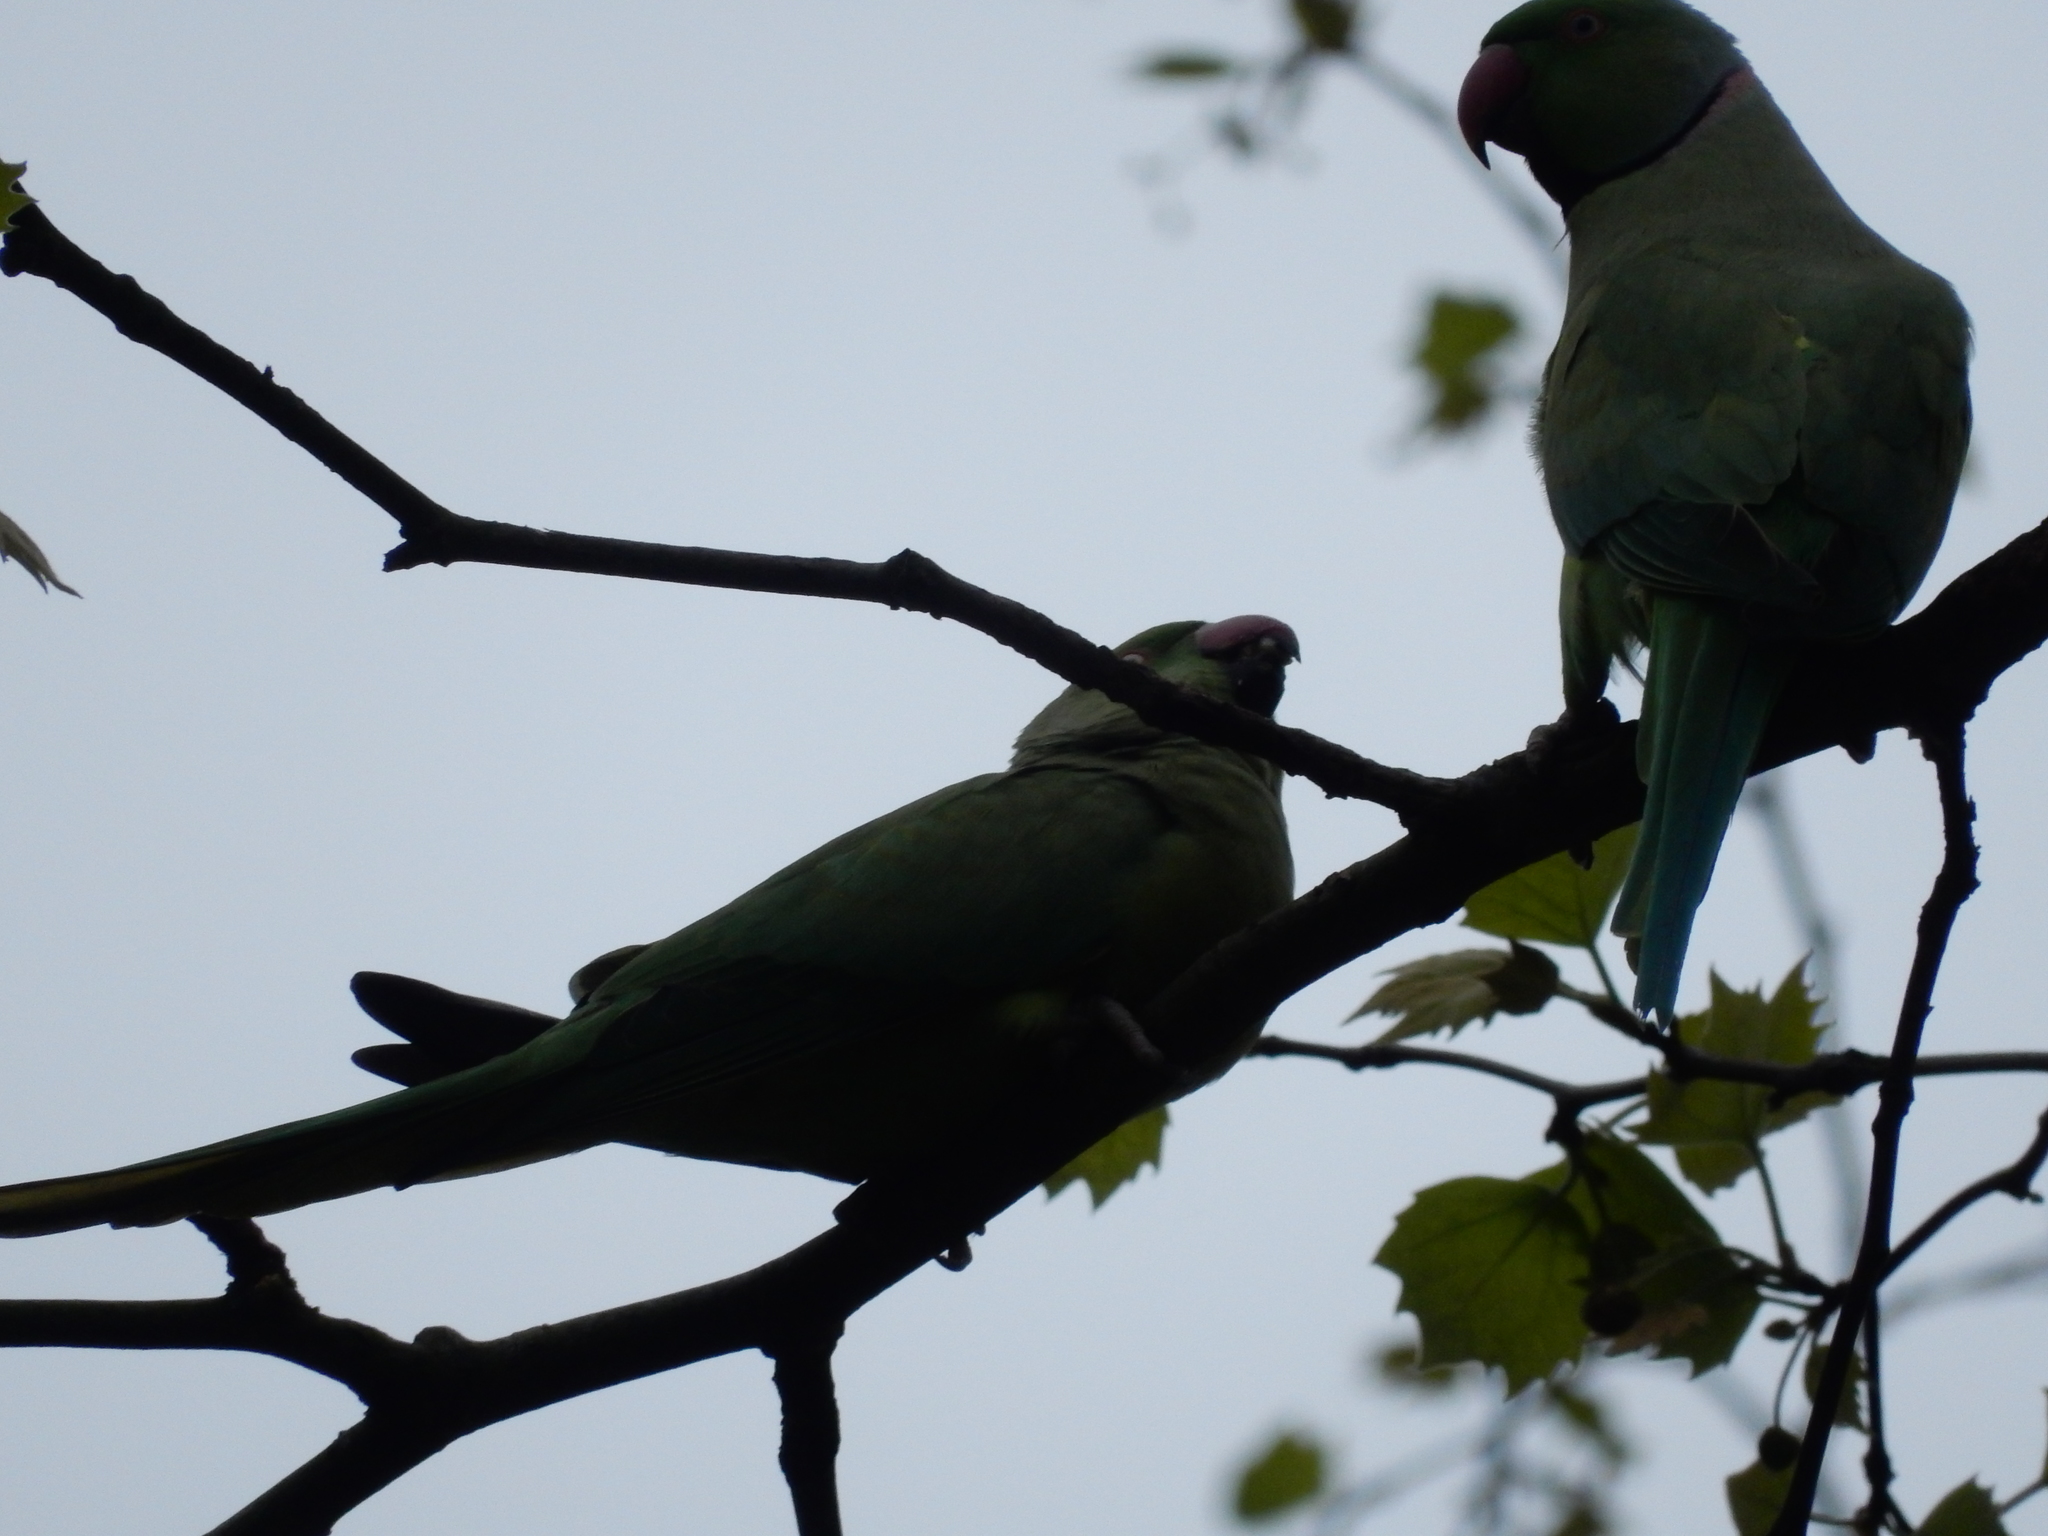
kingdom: Animalia
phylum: Chordata
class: Aves
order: Psittaciformes
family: Psittacidae
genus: Psittacula
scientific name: Psittacula krameri
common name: Rose-ringed parakeet
